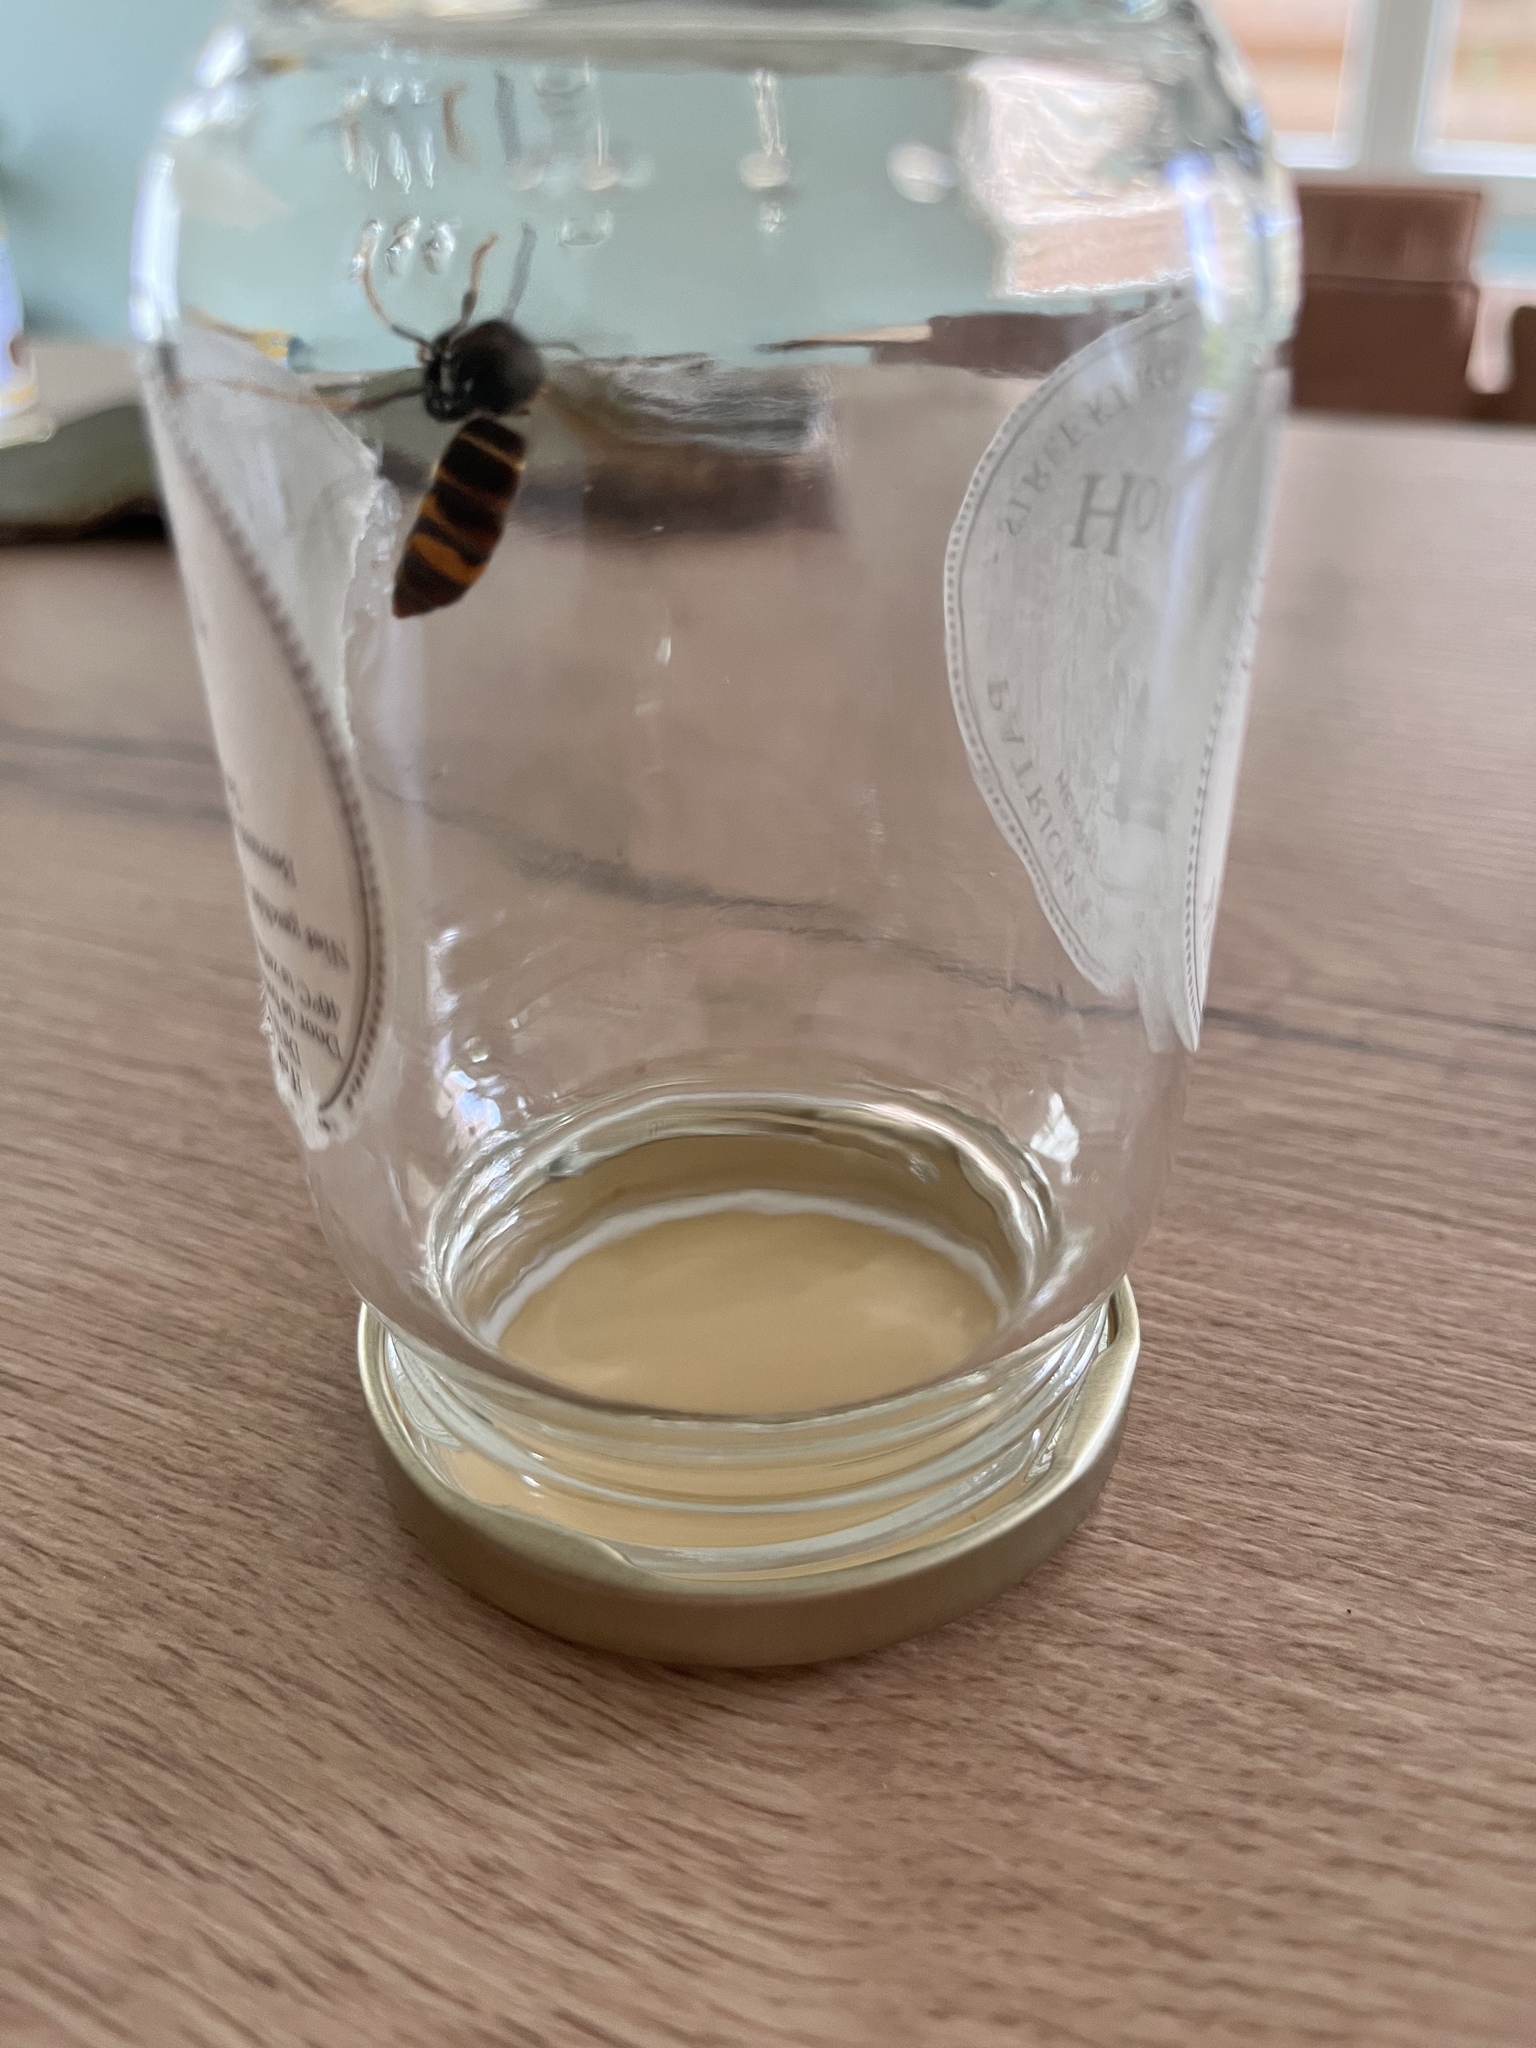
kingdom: Animalia
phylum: Arthropoda
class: Insecta
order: Hymenoptera
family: Vespidae
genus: Vespa
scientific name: Vespa velutina
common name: Asian hornet
